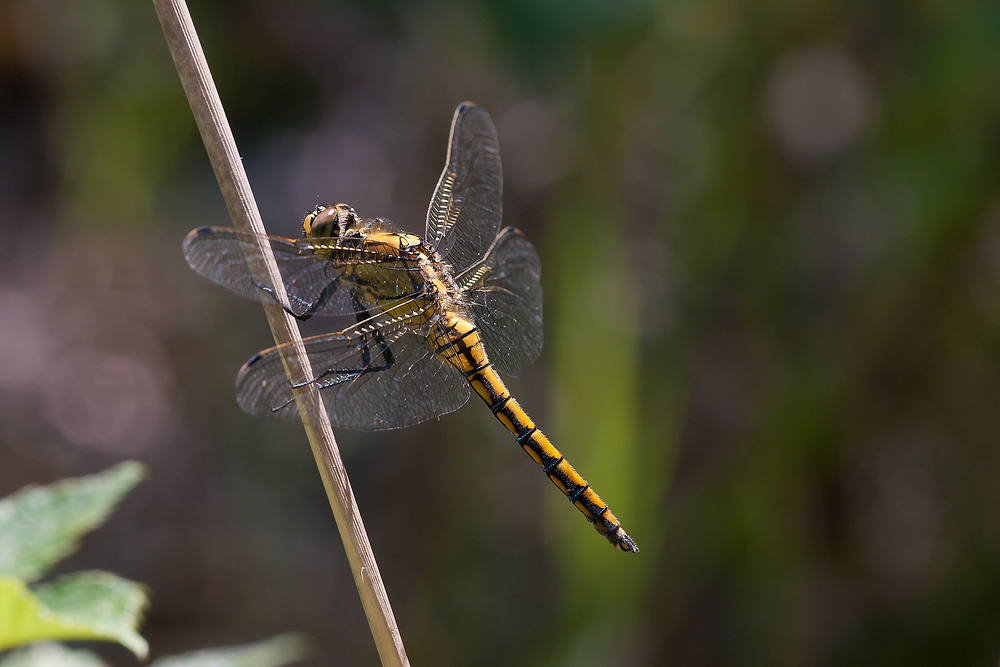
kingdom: Animalia
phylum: Arthropoda
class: Insecta
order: Odonata
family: Libellulidae
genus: Orthetrum
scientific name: Orthetrum cancellatum
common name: Black-tailed skimmer
